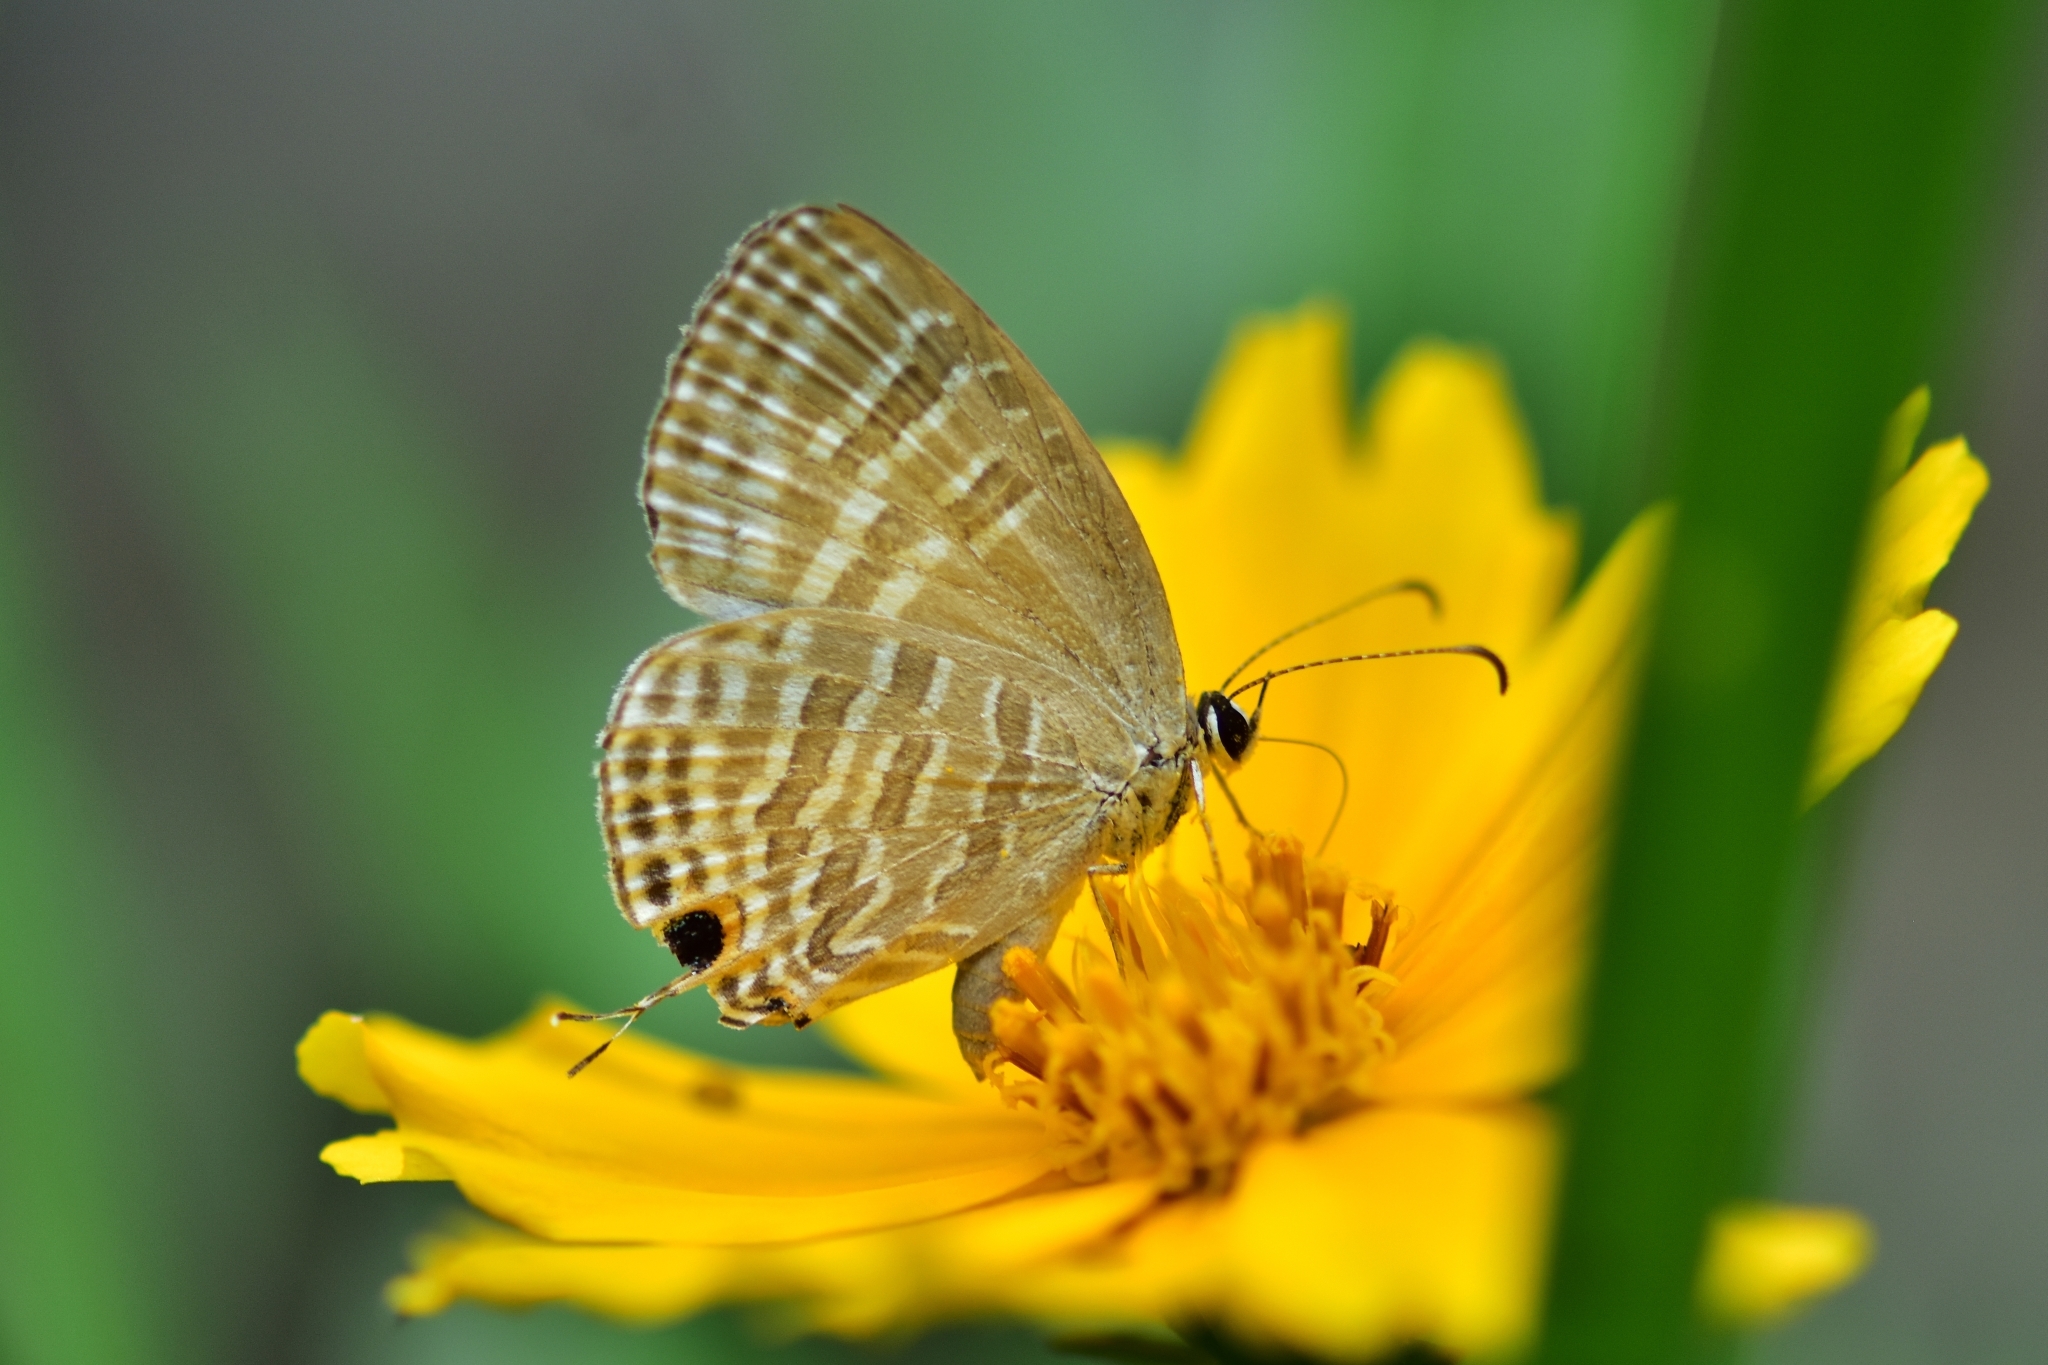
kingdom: Animalia
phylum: Arthropoda
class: Insecta
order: Lepidoptera
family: Lycaenidae
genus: Jamides
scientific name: Jamides celeno
